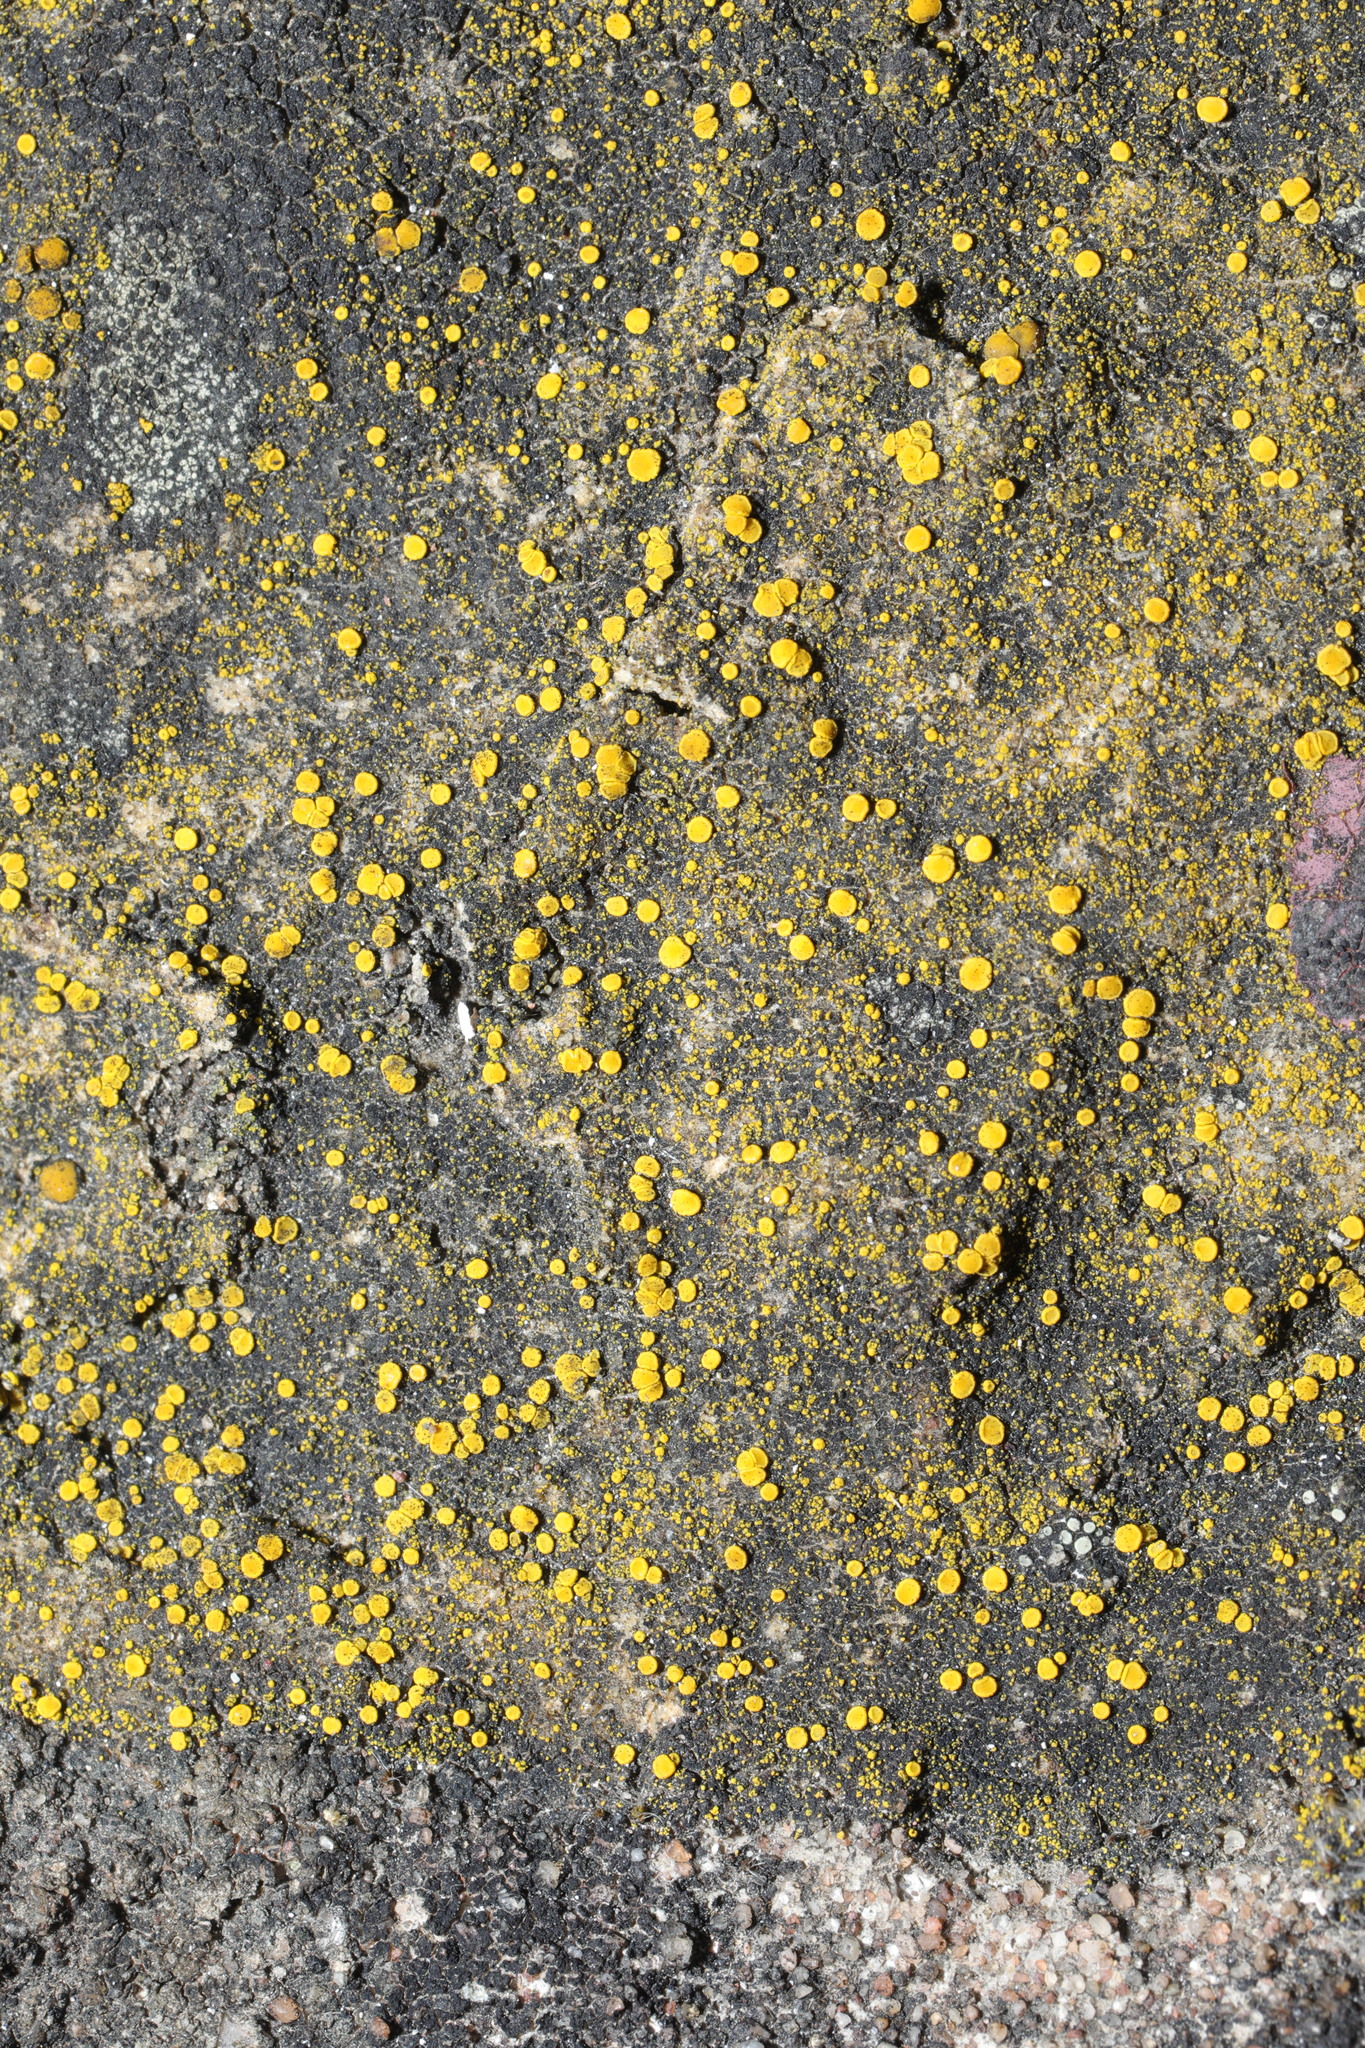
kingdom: Fungi
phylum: Ascomycota
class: Candelariomycetes
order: Candelariales
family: Candelariaceae
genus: Candelariella
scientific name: Candelariella aurella
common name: Hidden goldspeck lichen
